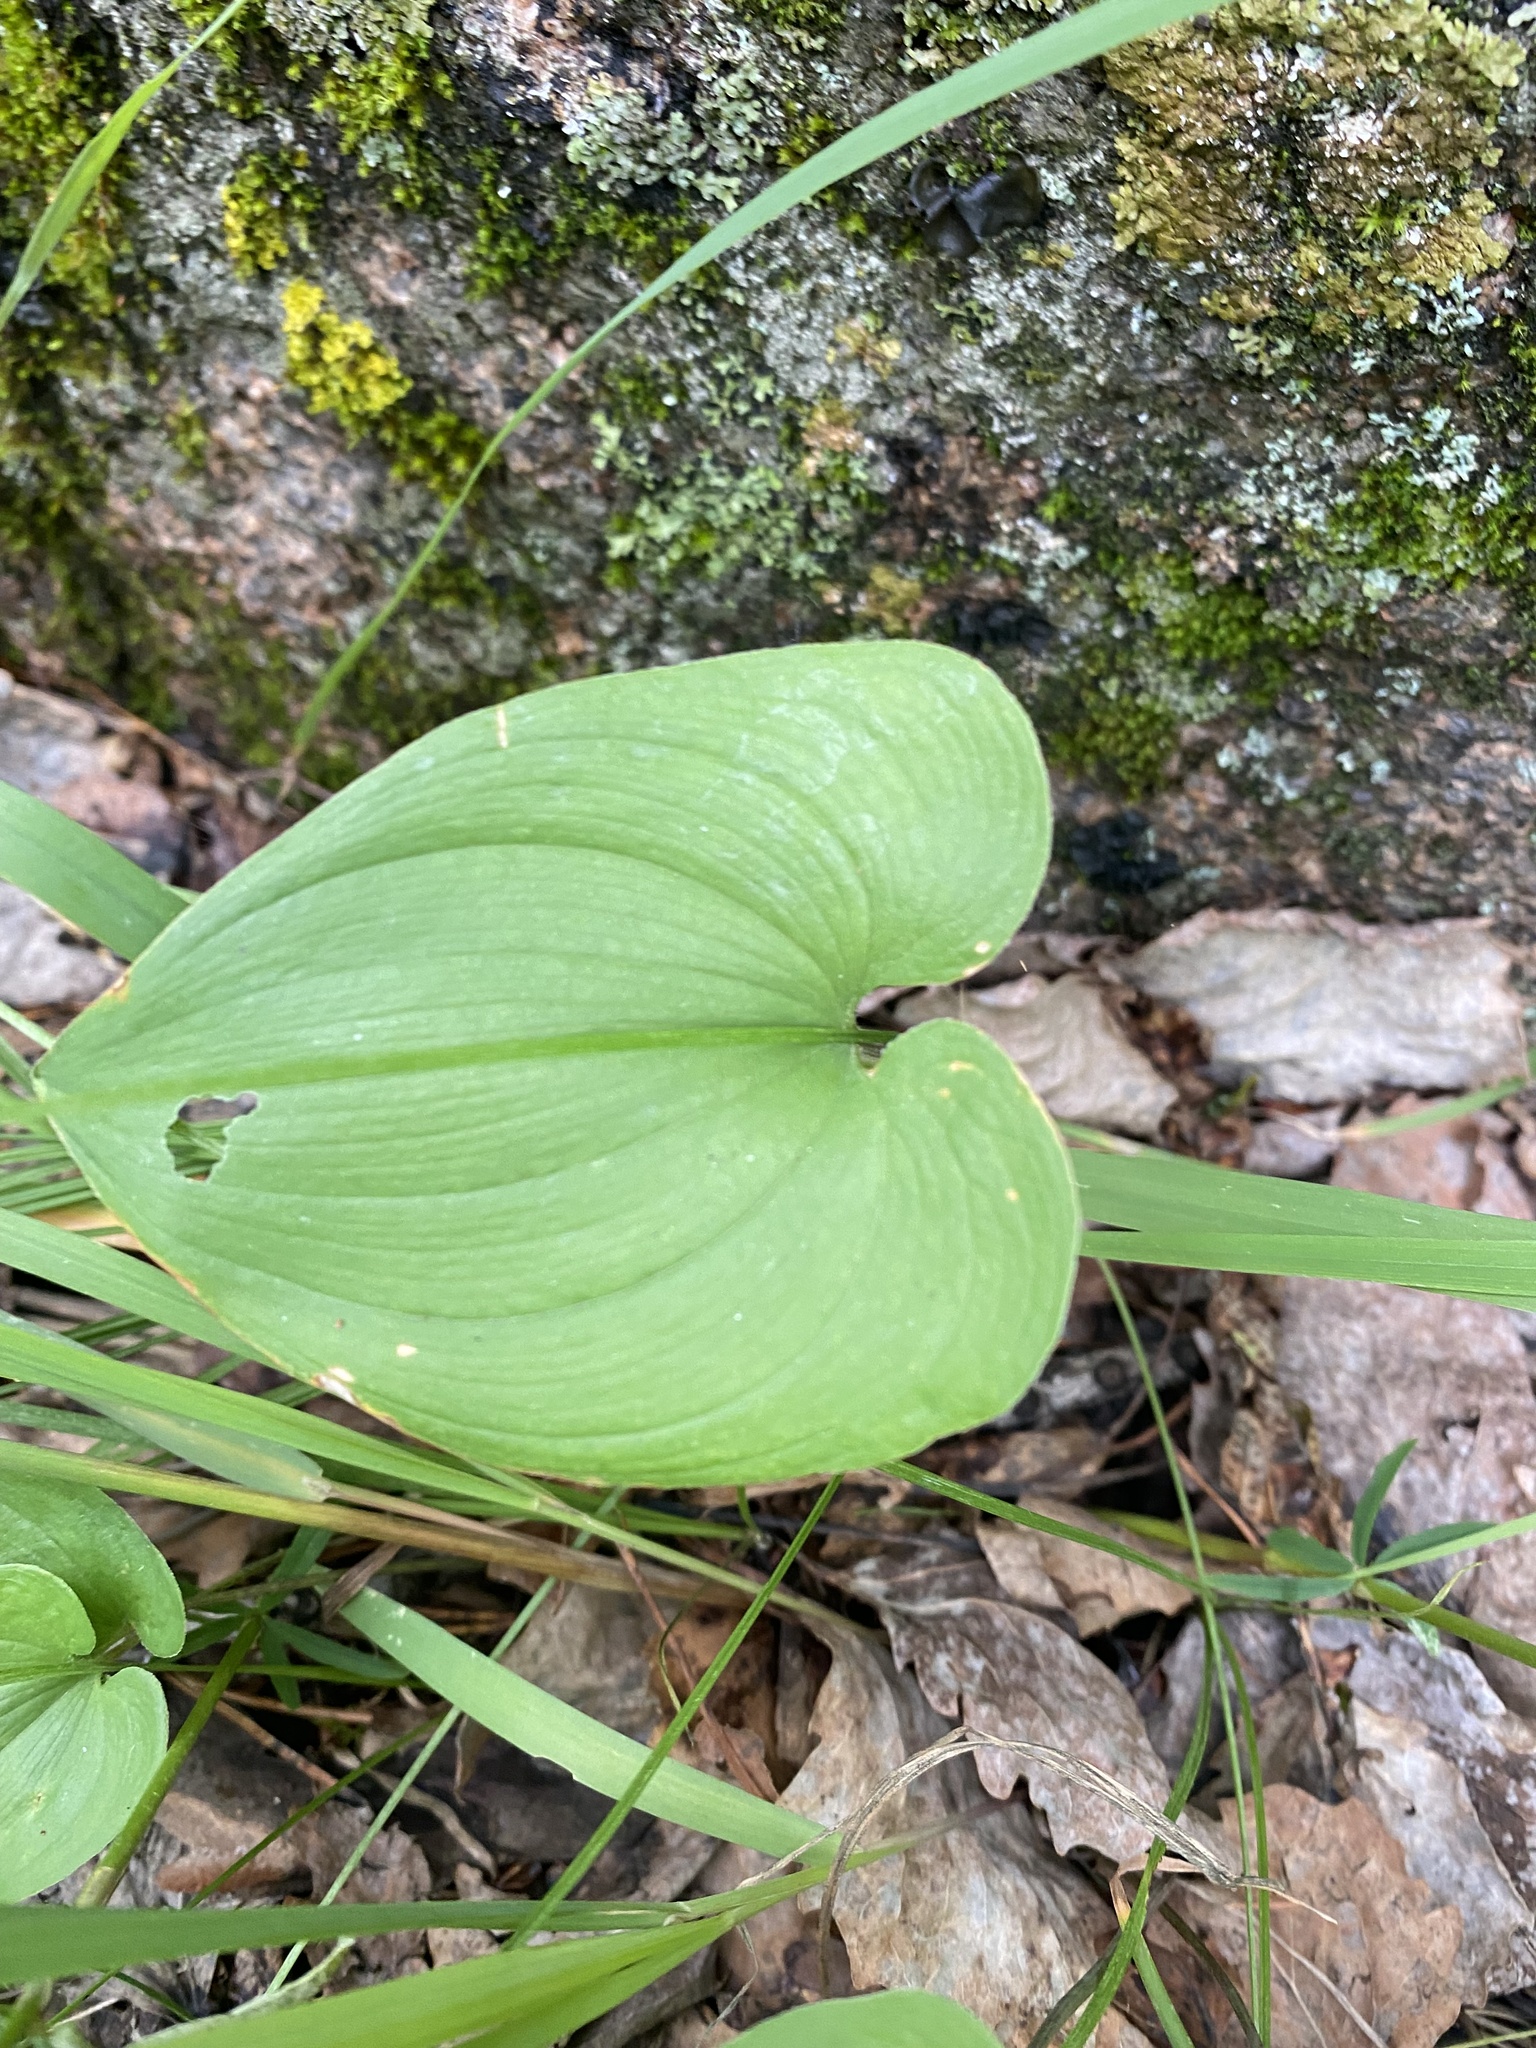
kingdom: Plantae
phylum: Tracheophyta
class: Liliopsida
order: Asparagales
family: Asparagaceae
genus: Maianthemum
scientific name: Maianthemum bifolium
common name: May lily
